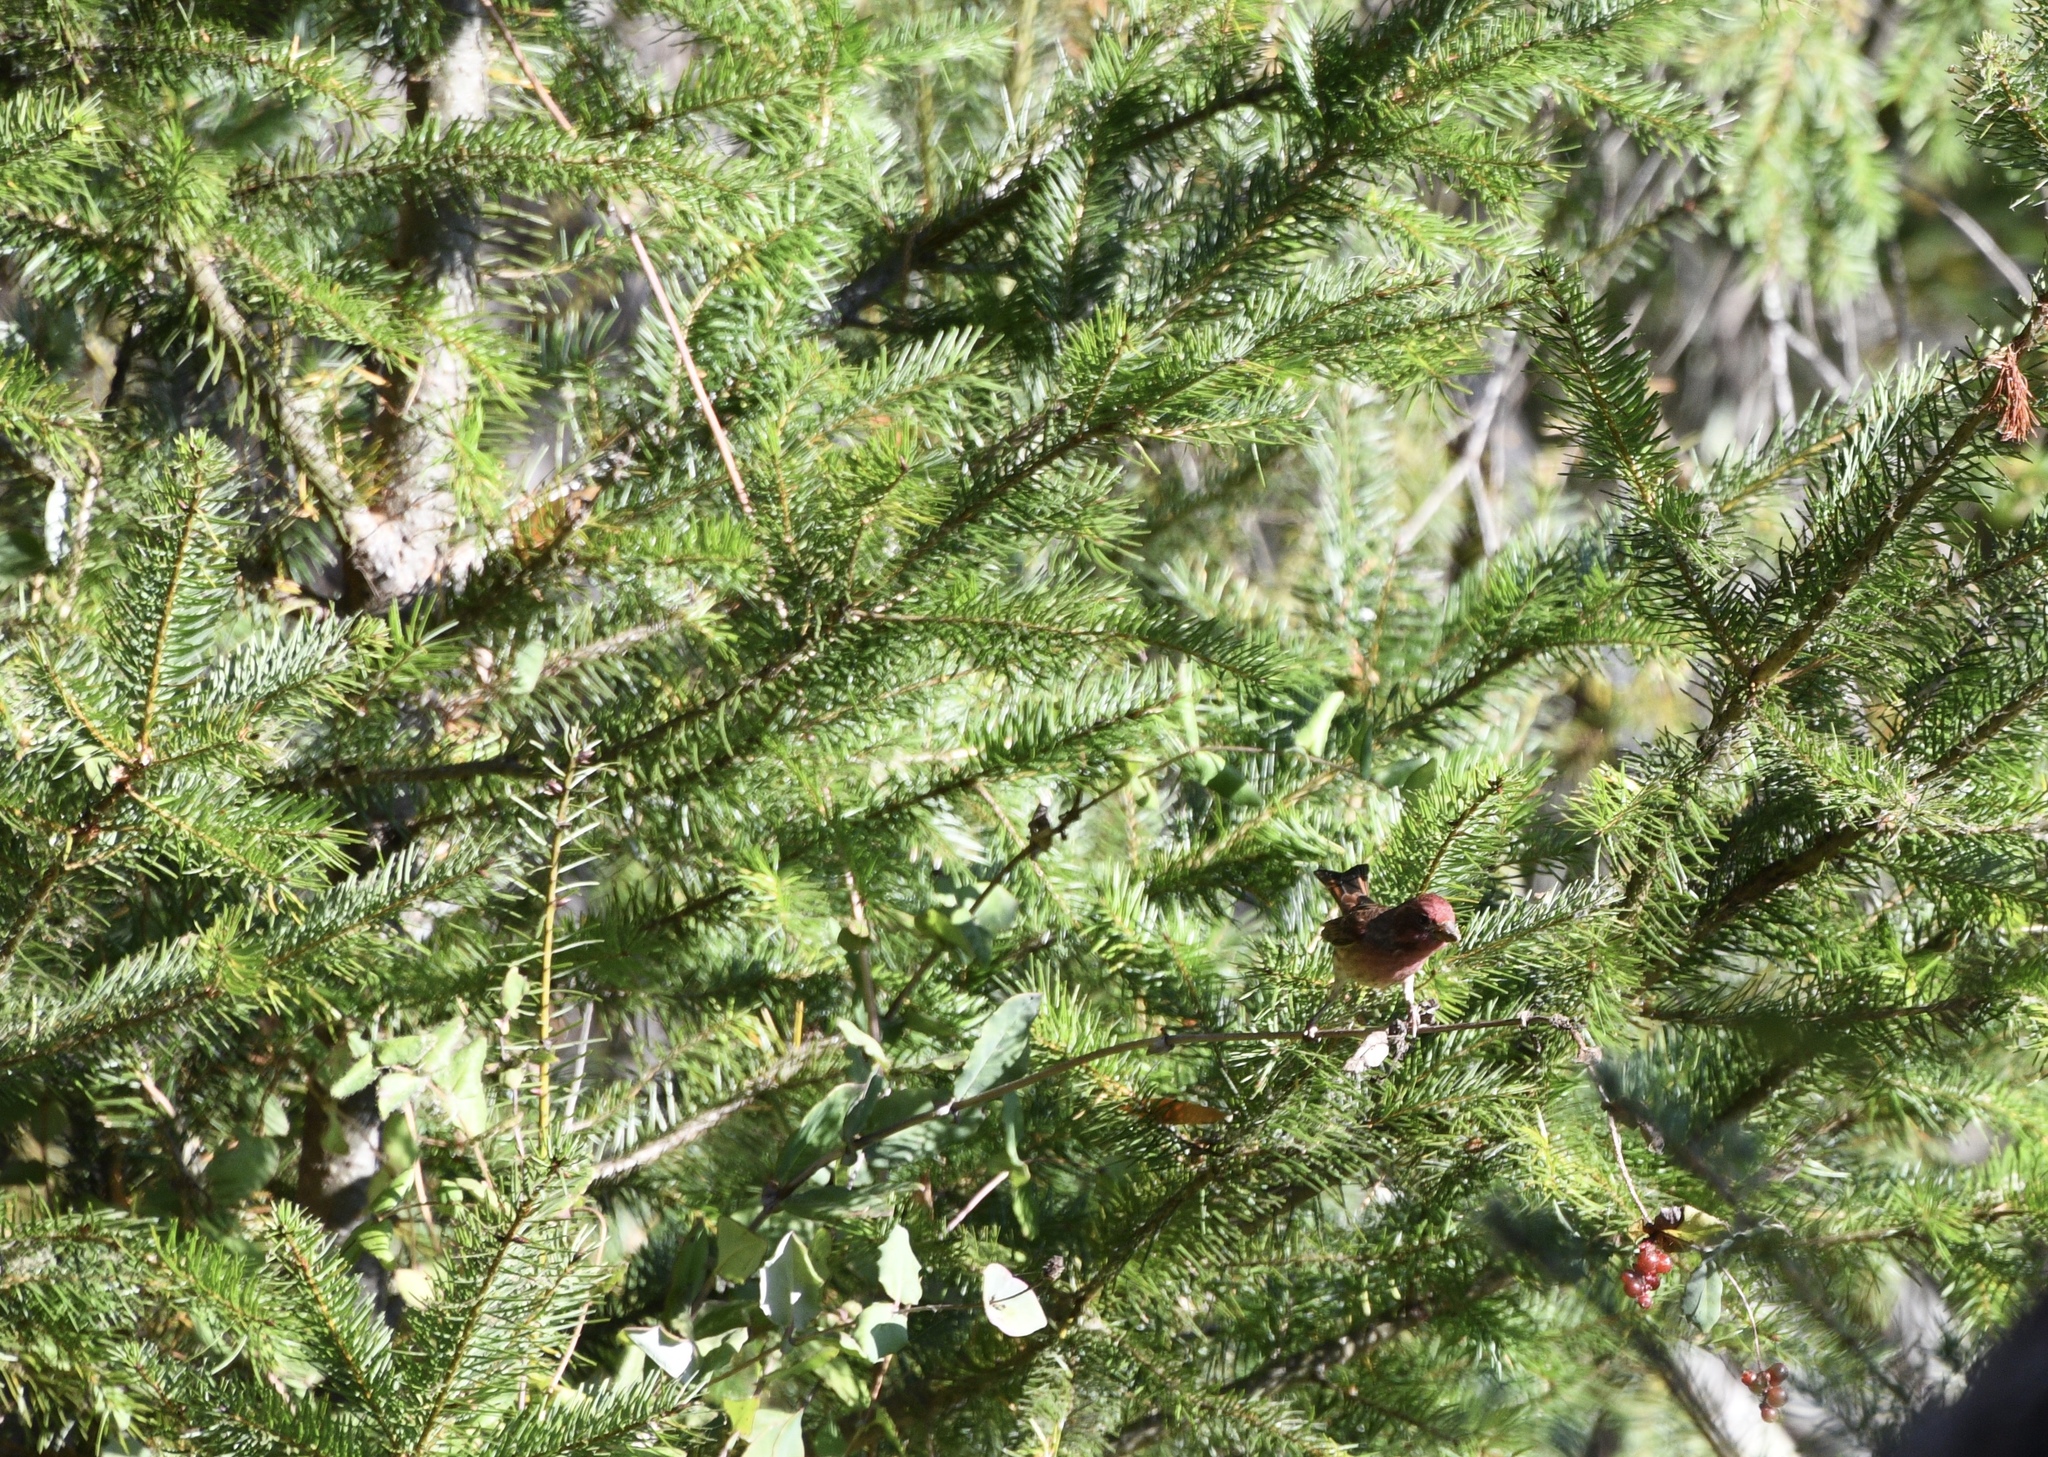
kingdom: Animalia
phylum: Chordata
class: Aves
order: Passeriformes
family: Fringillidae
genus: Haemorhous
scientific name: Haemorhous purpureus
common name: Purple finch
